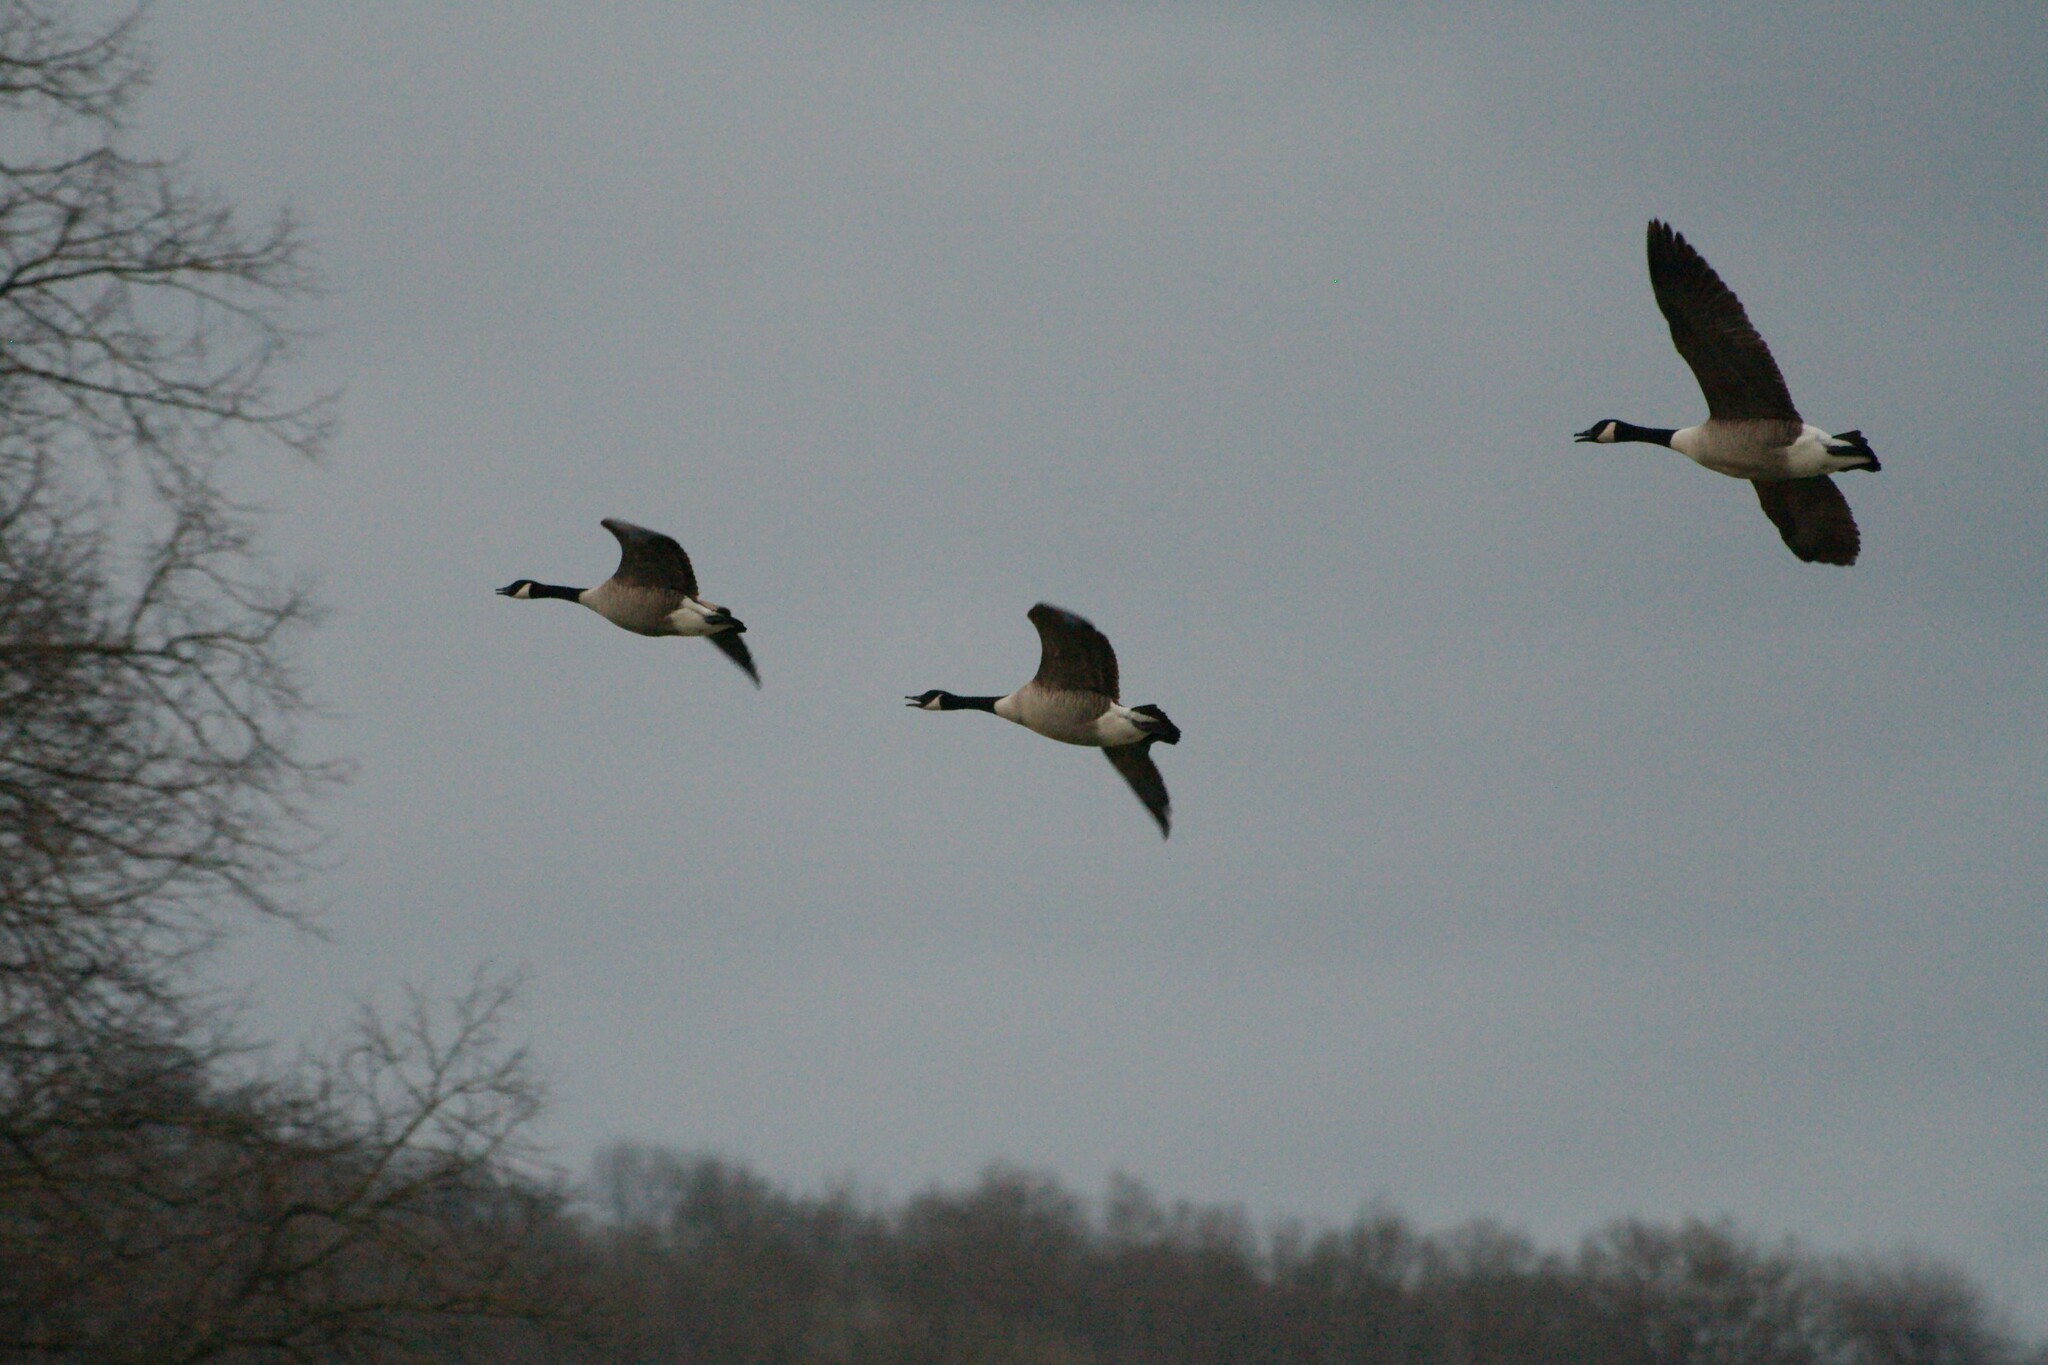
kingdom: Animalia
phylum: Chordata
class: Aves
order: Anseriformes
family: Anatidae
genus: Branta
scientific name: Branta canadensis
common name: Canada goose
